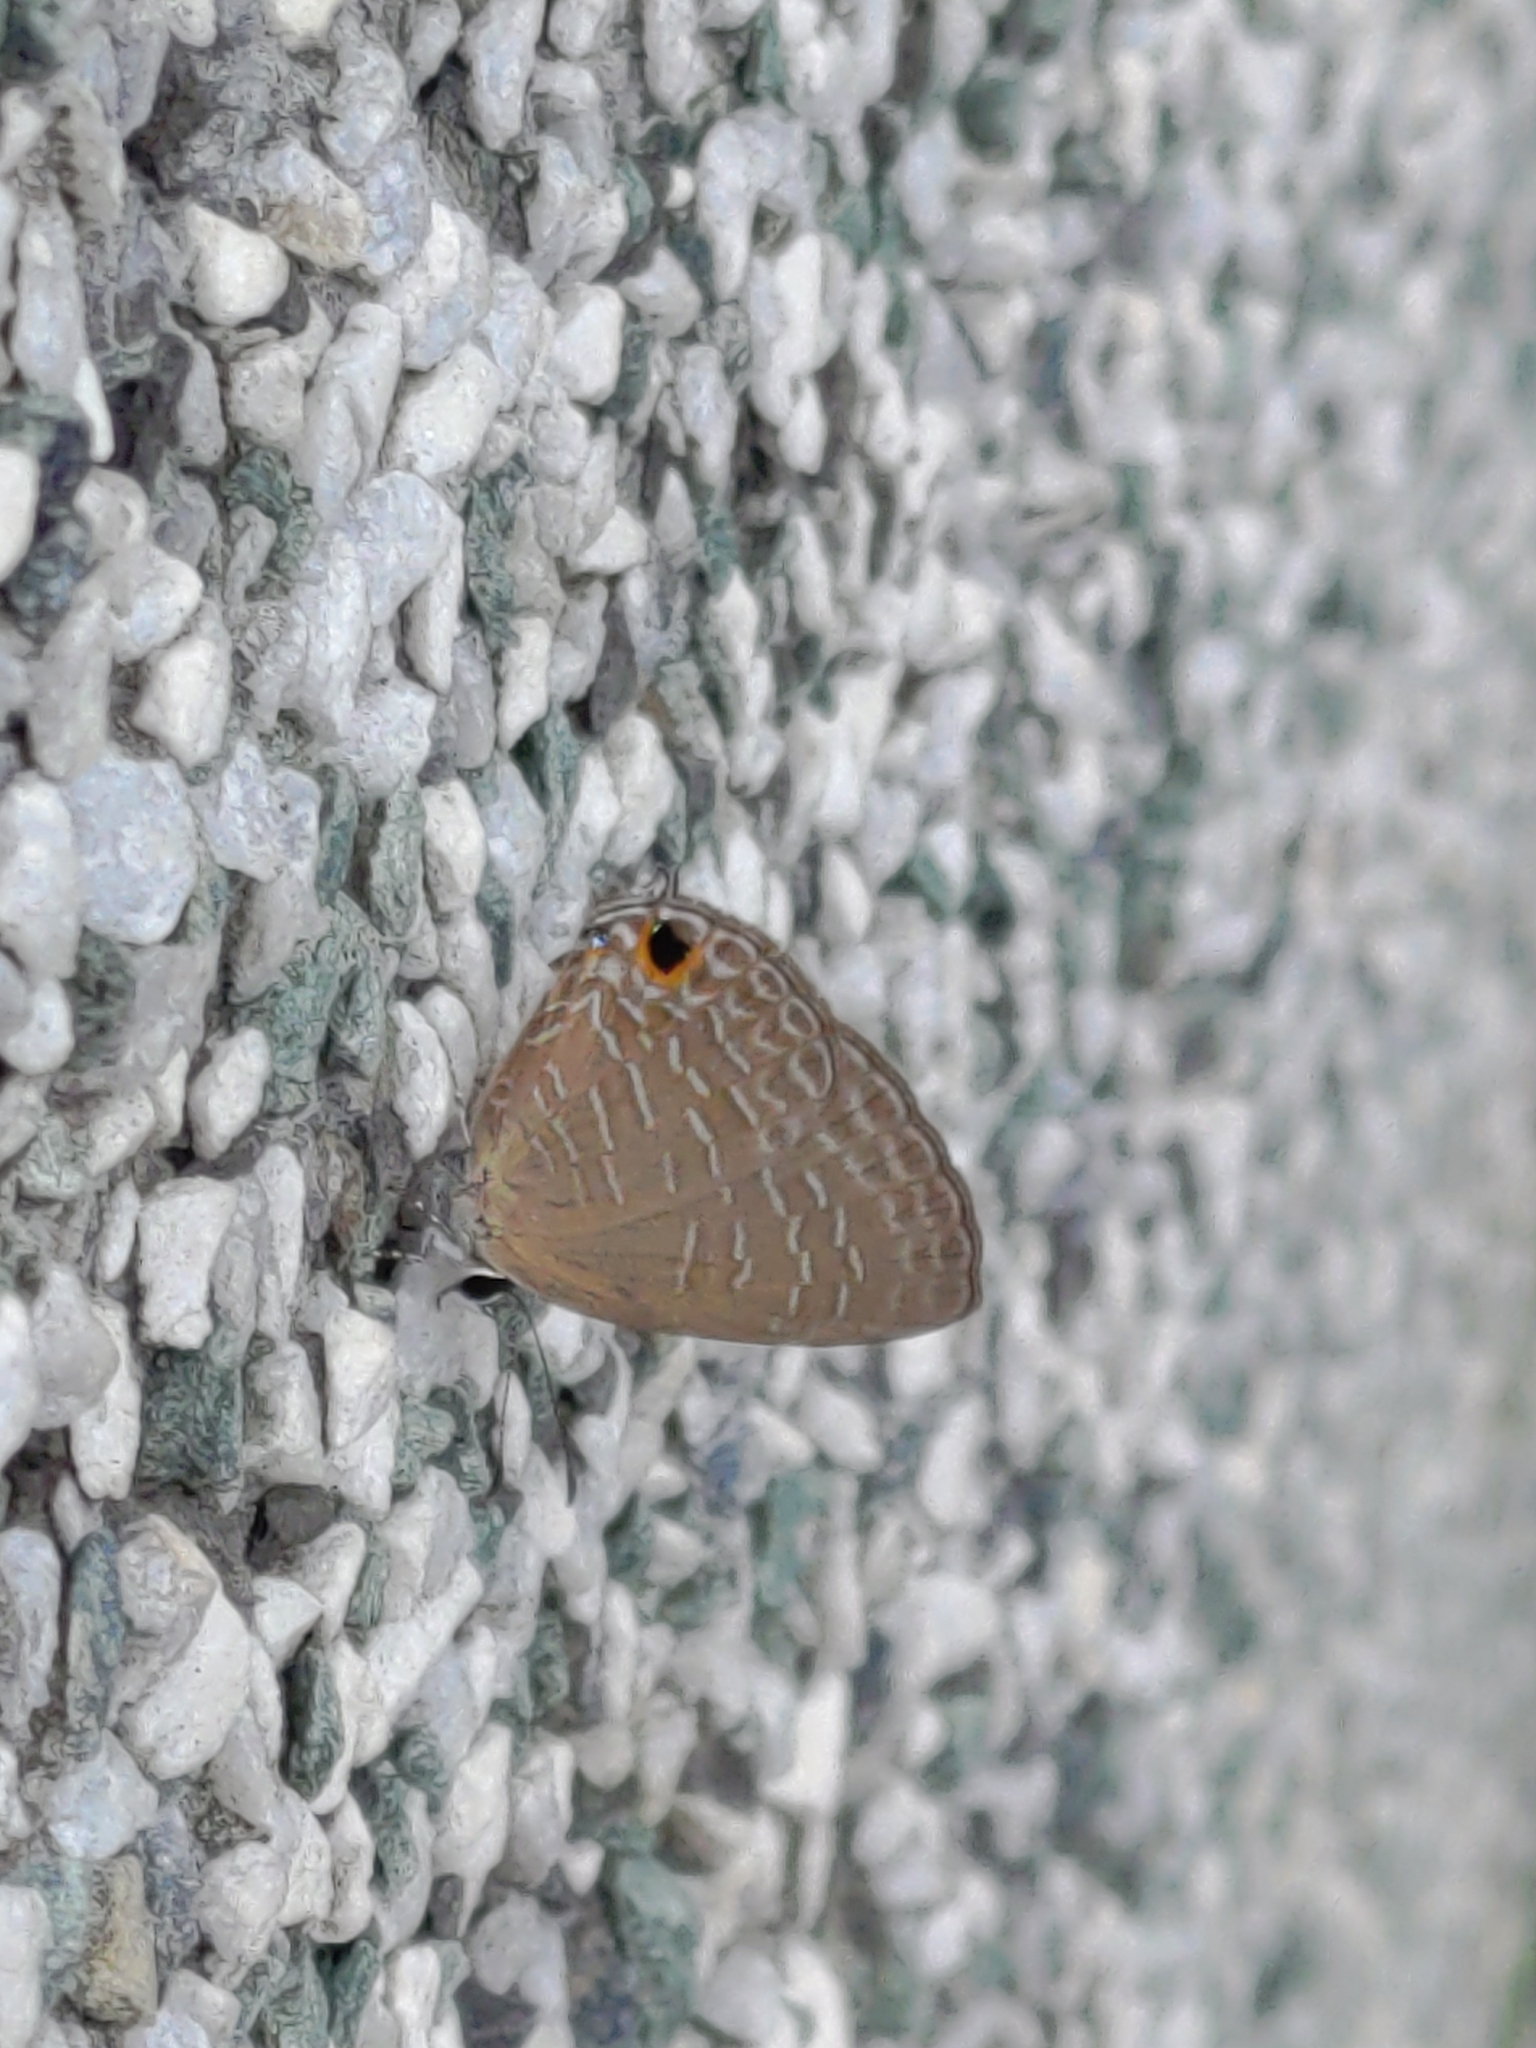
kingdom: Animalia
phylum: Arthropoda
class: Insecta
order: Lepidoptera
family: Lycaenidae
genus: Jamides
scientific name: Jamides bochus
